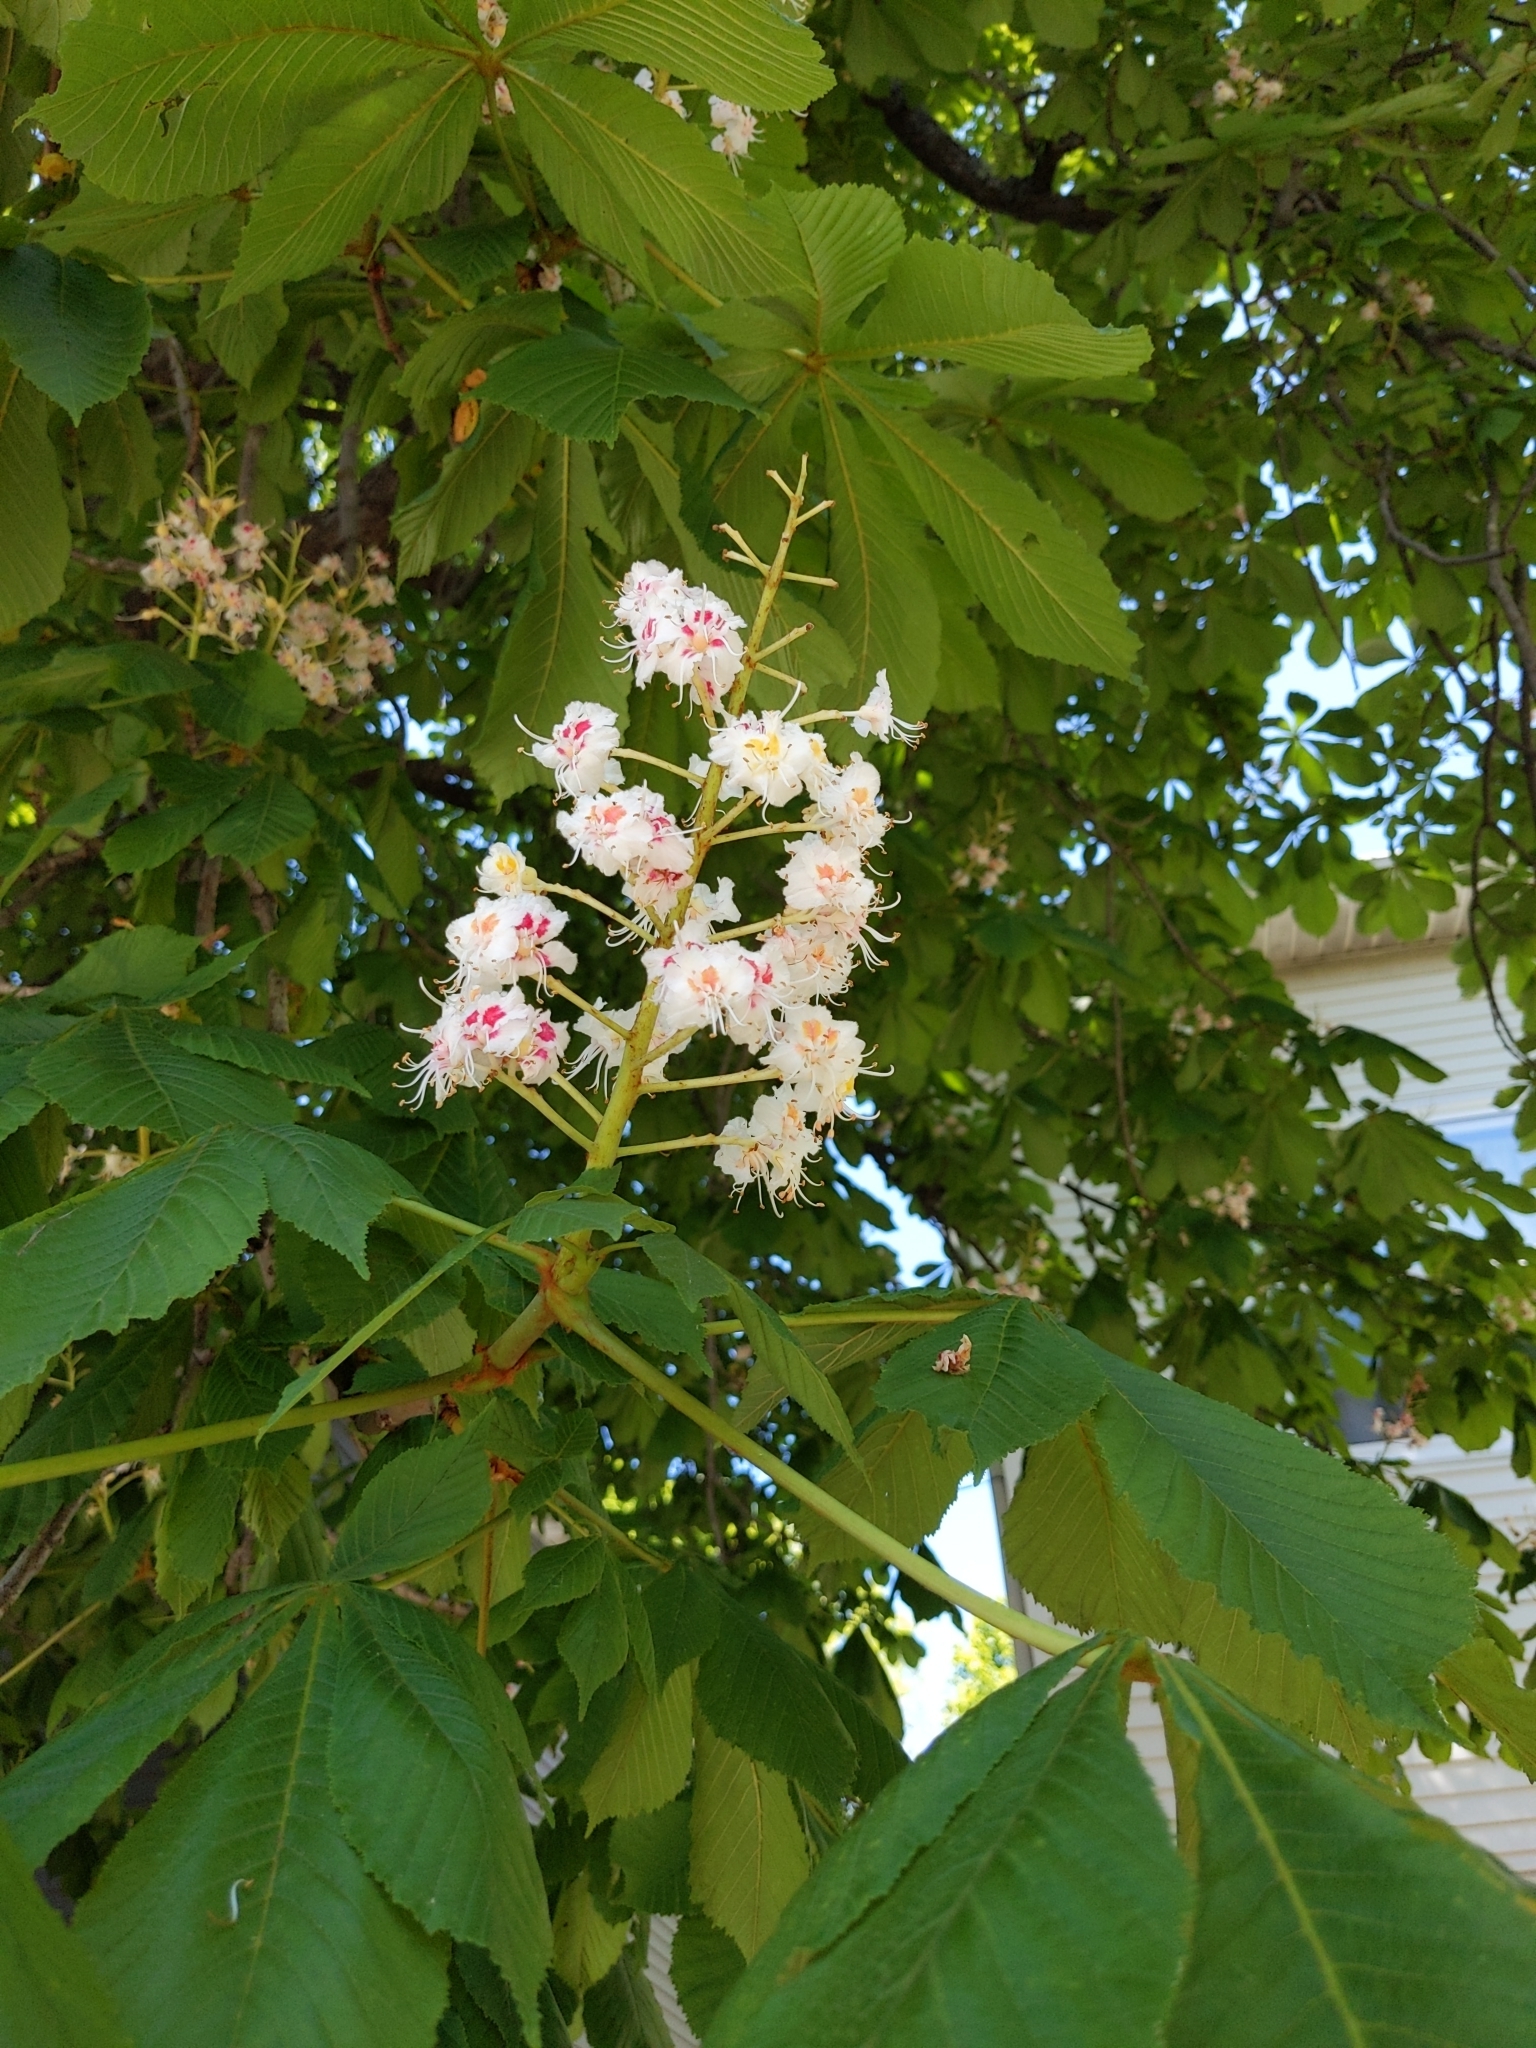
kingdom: Plantae
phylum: Tracheophyta
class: Magnoliopsida
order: Sapindales
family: Sapindaceae
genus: Aesculus
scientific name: Aesculus hippocastanum
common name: Horse-chestnut
